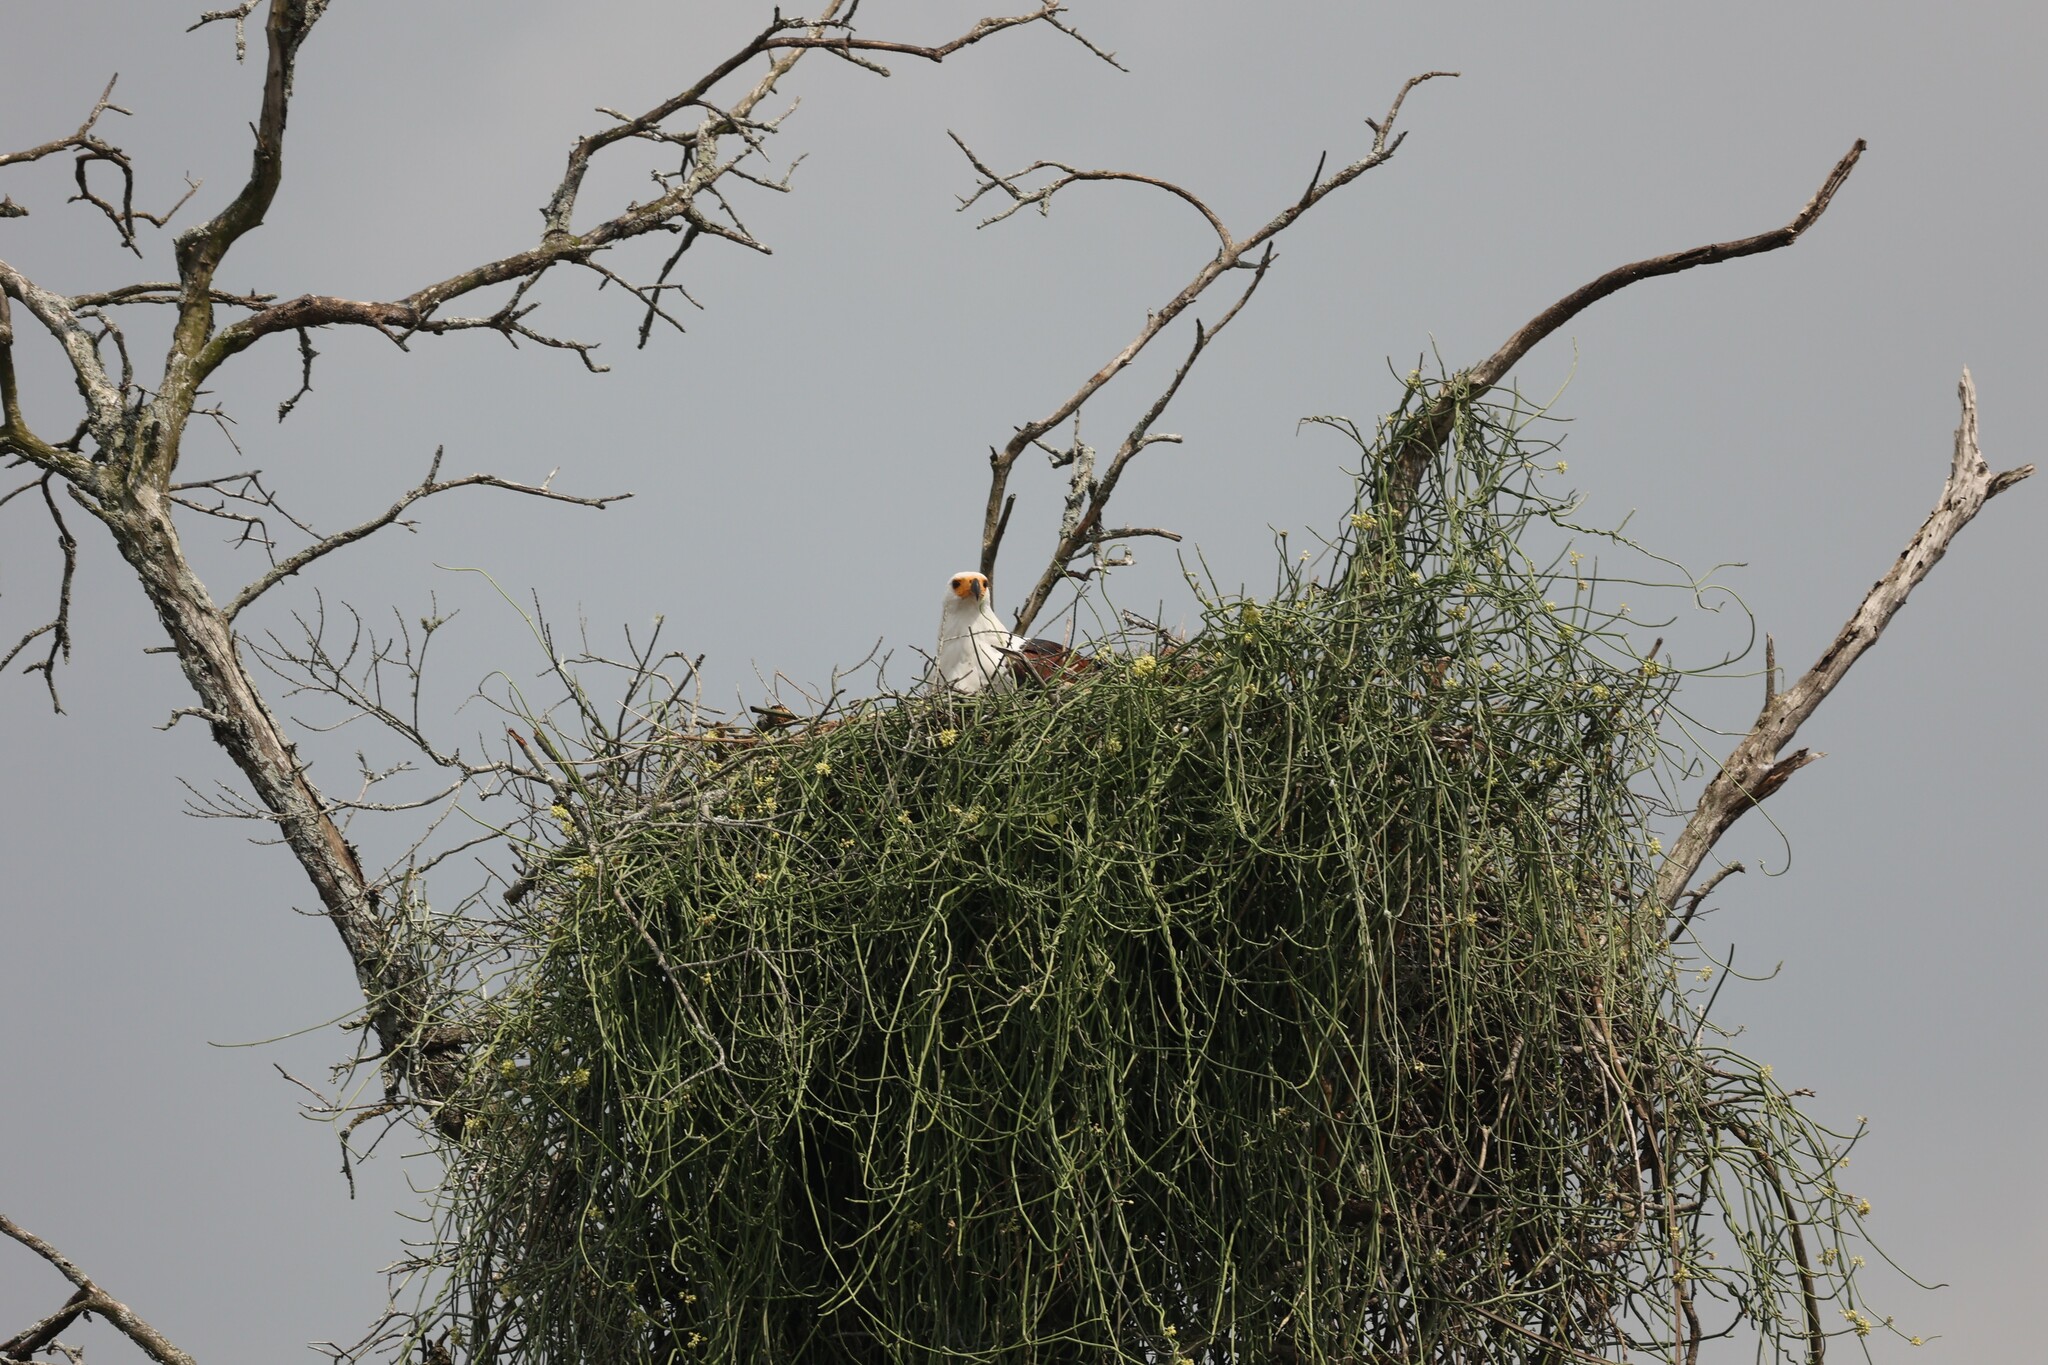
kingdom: Animalia
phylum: Chordata
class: Aves
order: Accipitriformes
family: Accipitridae
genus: Haliaeetus
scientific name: Haliaeetus vocifer
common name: African fish eagle
